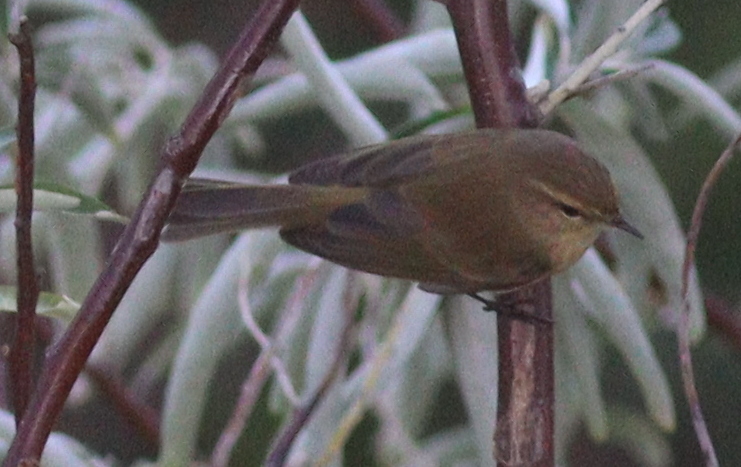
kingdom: Animalia
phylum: Chordata
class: Aves
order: Passeriformes
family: Phylloscopidae
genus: Phylloscopus
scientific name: Phylloscopus collybita
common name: Common chiffchaff
